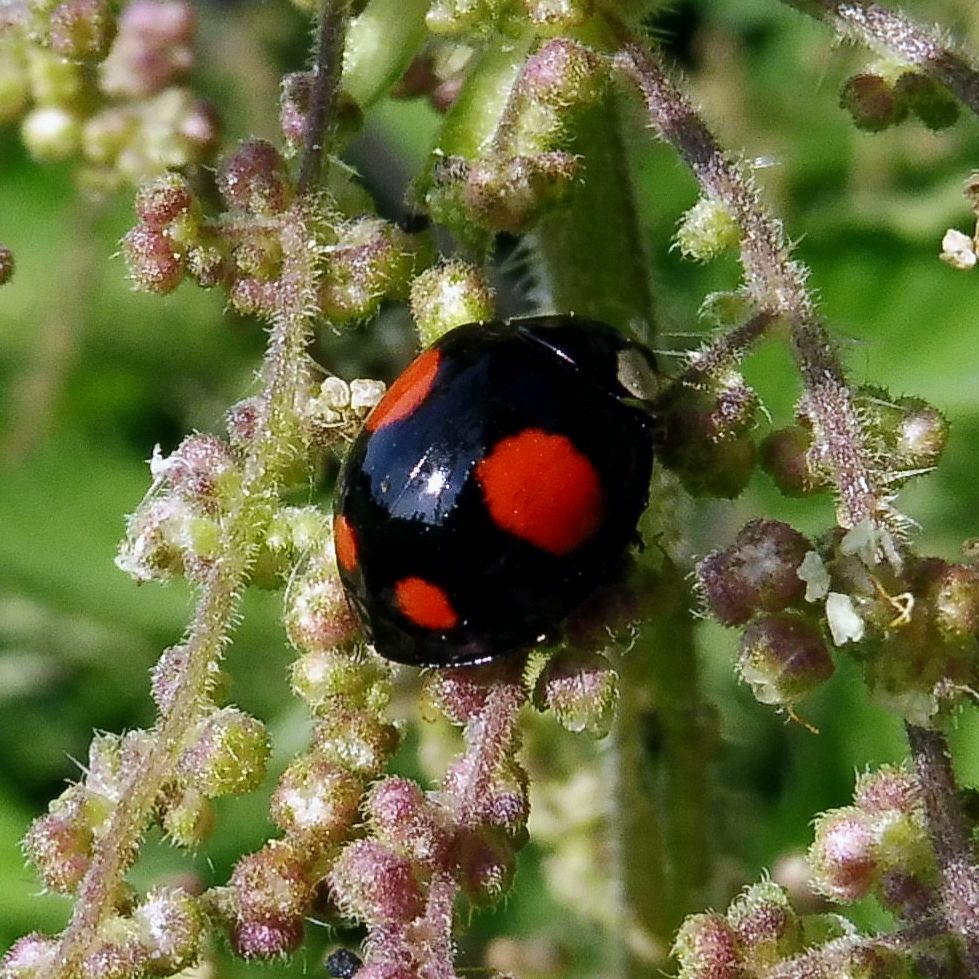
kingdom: Animalia
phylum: Arthropoda
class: Insecta
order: Coleoptera
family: Coccinellidae
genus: Harmonia
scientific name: Harmonia axyridis
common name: Harlequin ladybird
